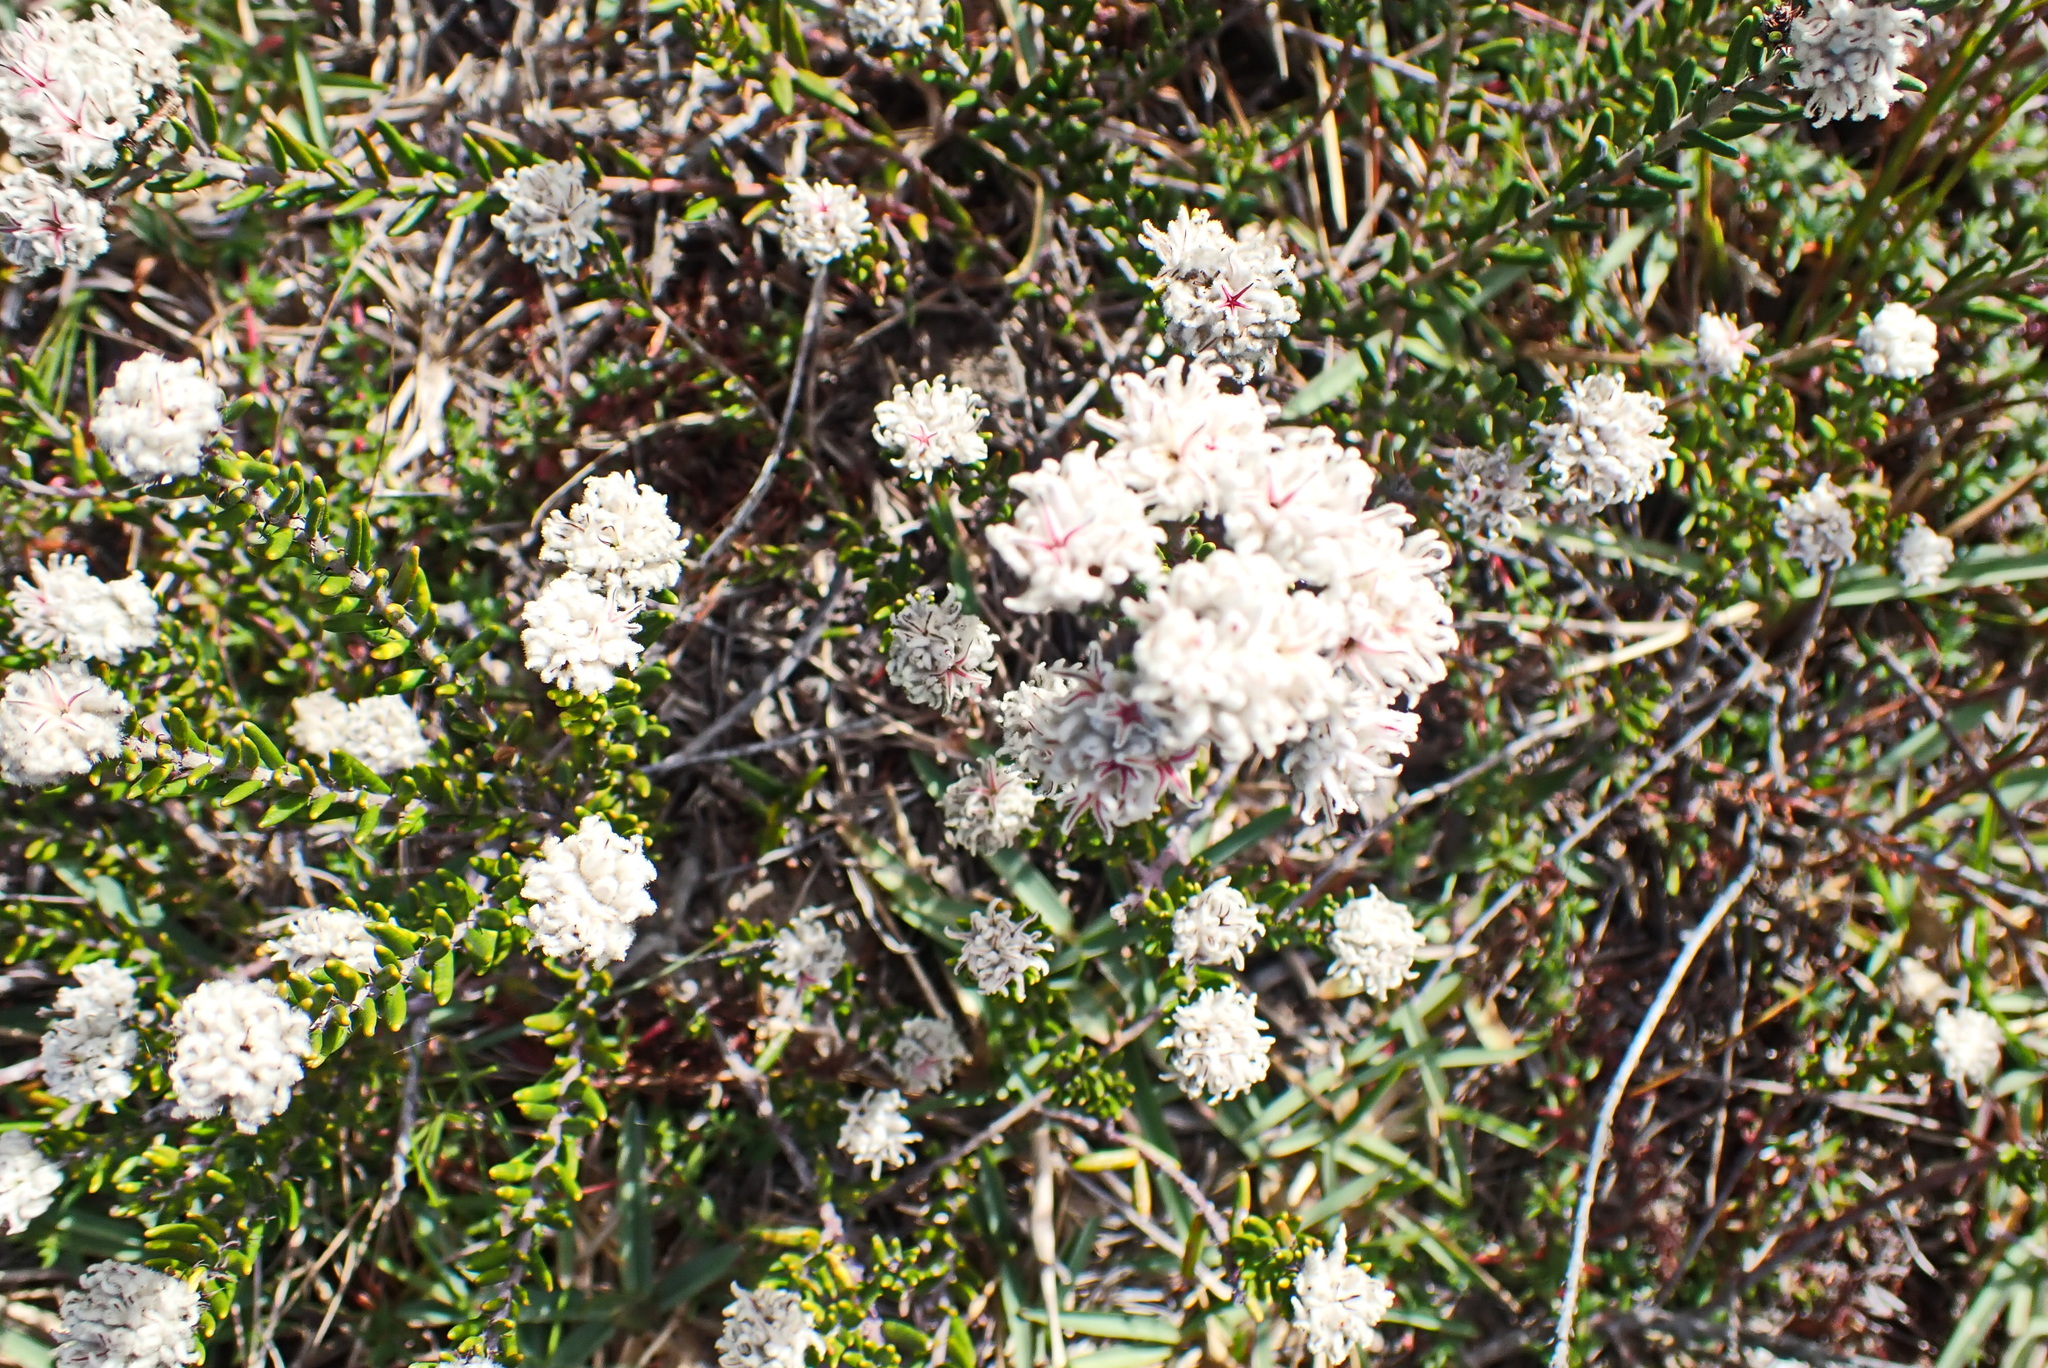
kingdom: Plantae
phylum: Tracheophyta
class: Magnoliopsida
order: Rosales
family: Rhamnaceae
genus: Trichocephalus
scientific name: Trichocephalus stipularis
